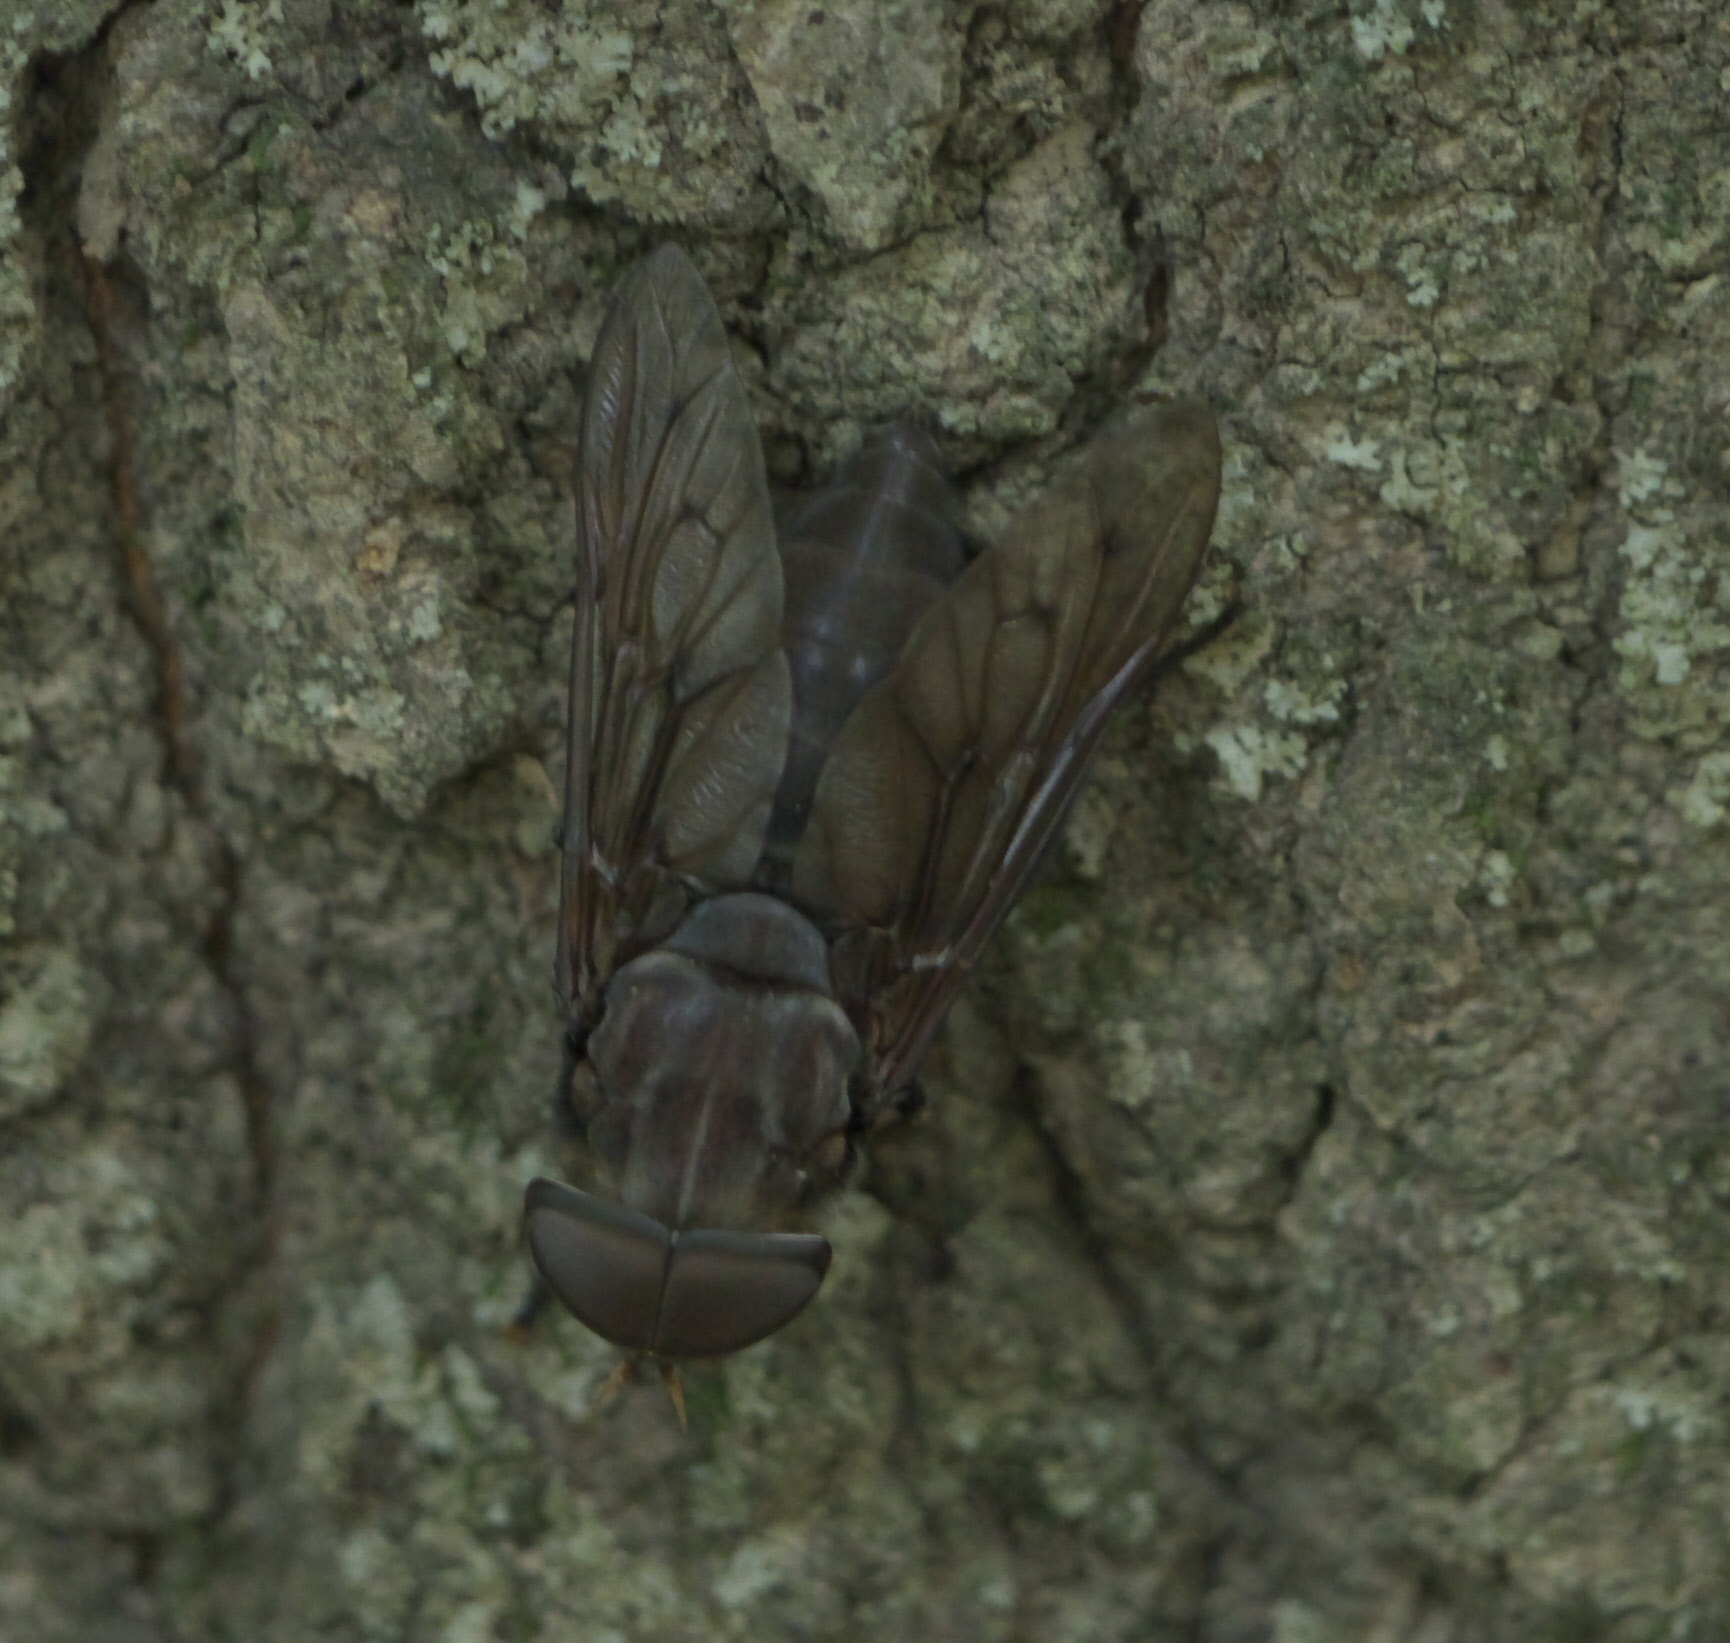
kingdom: Animalia
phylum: Arthropoda
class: Insecta
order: Diptera
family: Tabanidae
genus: Tabanus
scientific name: Tabanus calens
